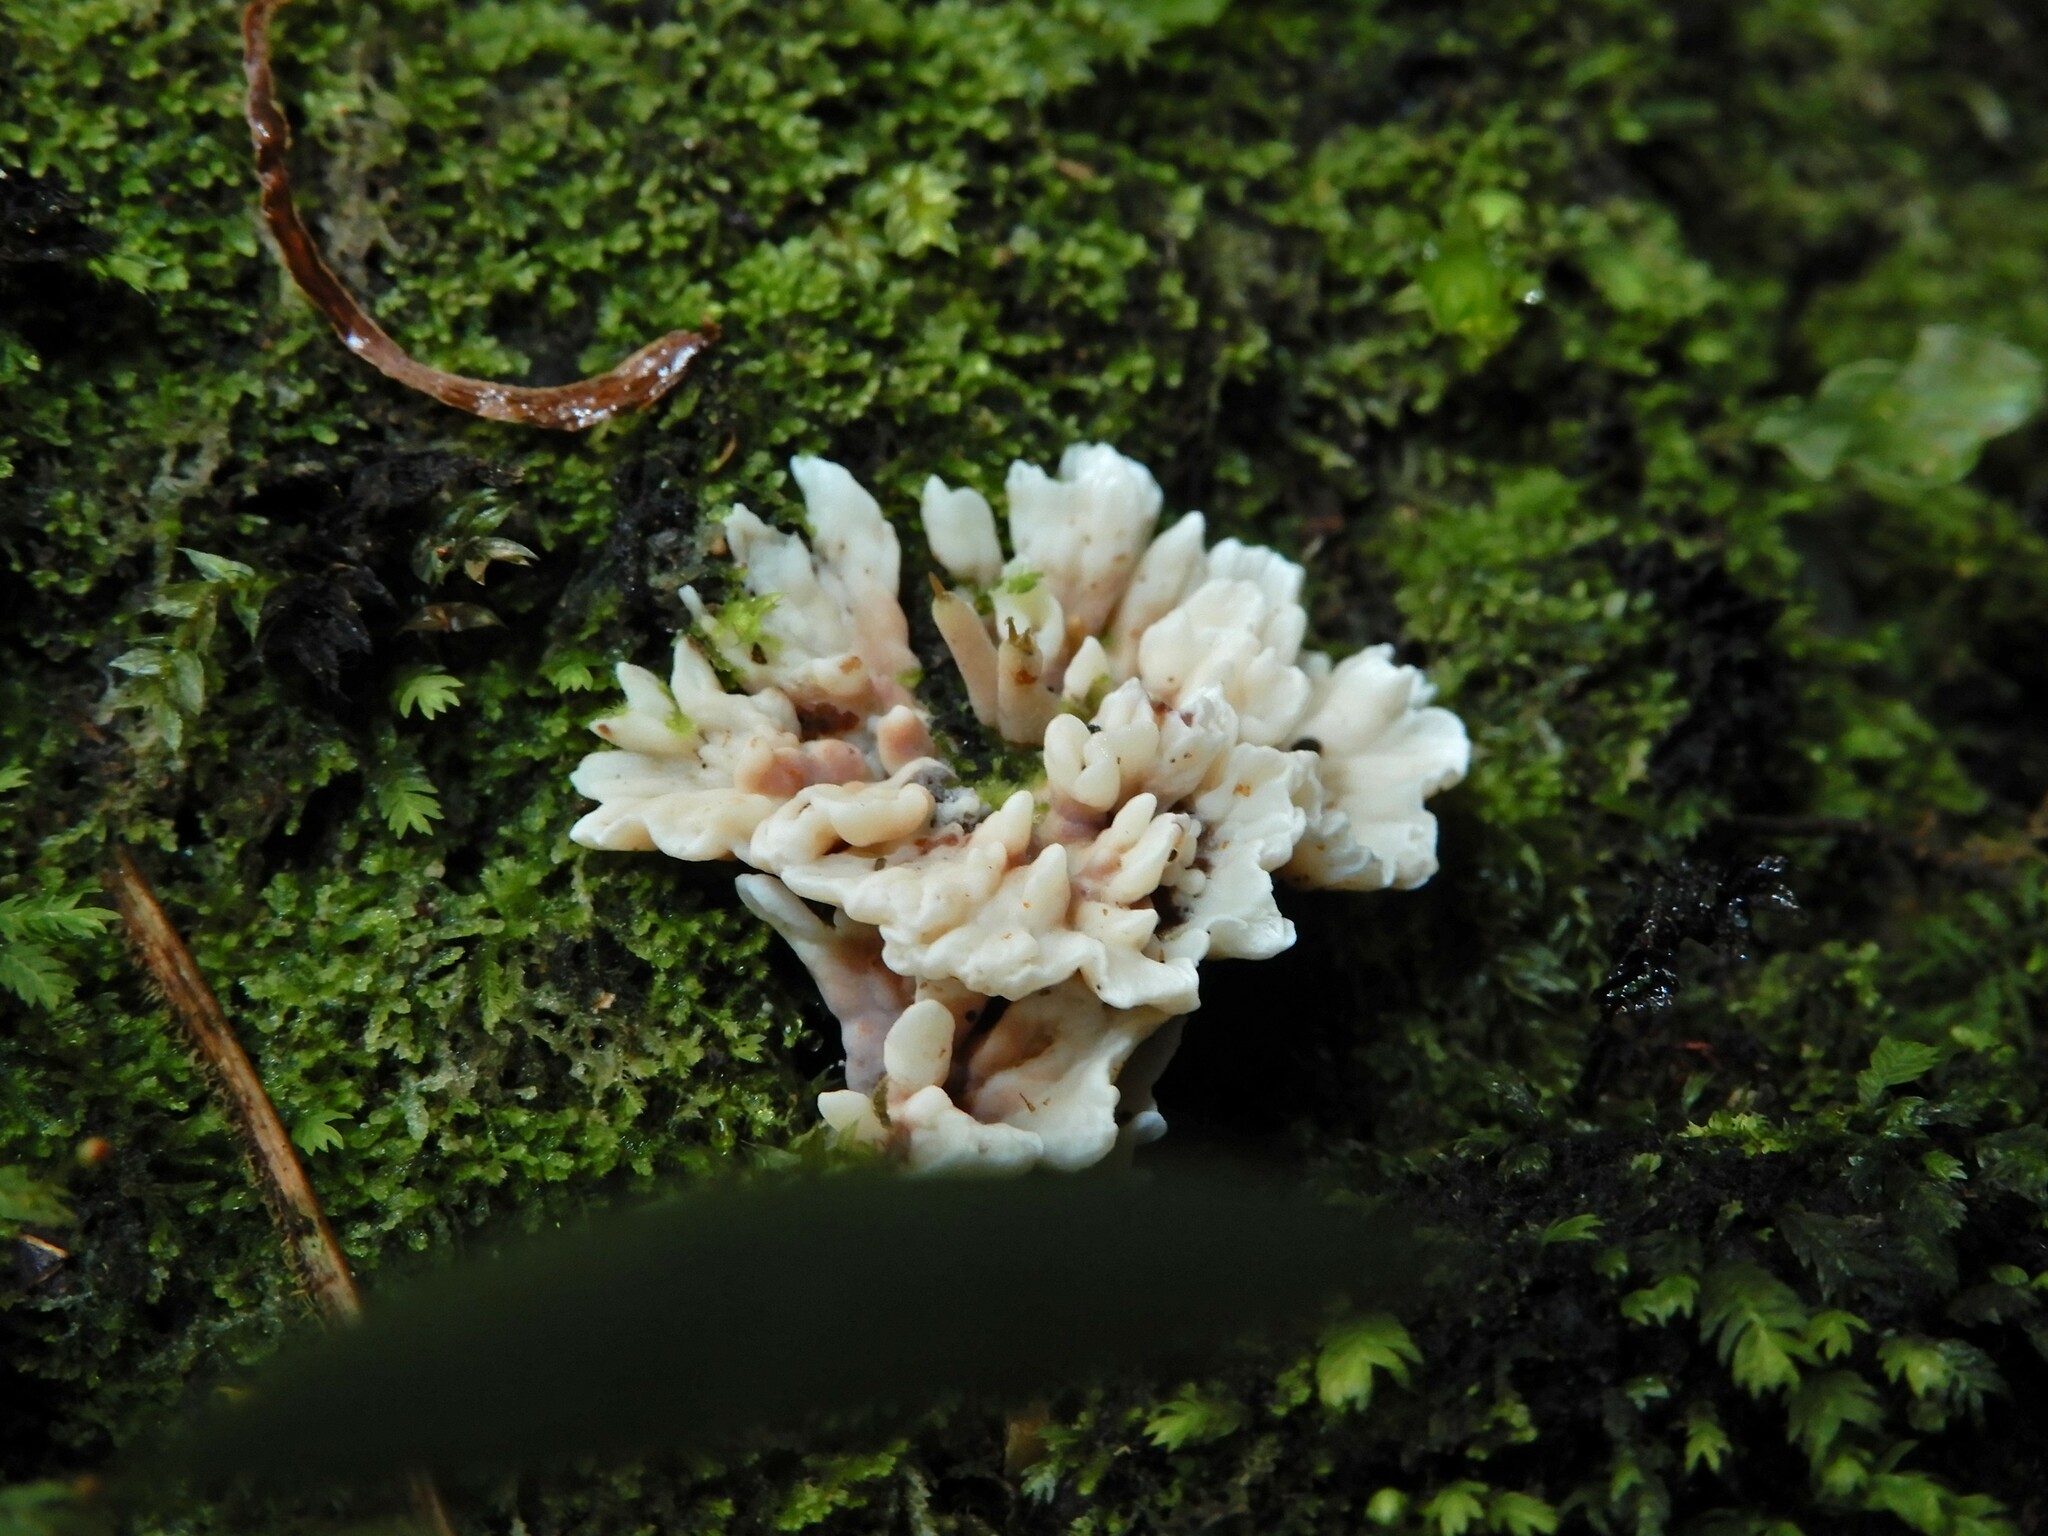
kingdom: Fungi
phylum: Basidiomycota
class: Agaricomycetes
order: Stereopsidales
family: Stereopsidaceae
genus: Stereopsis
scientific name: Stereopsis hiscens
